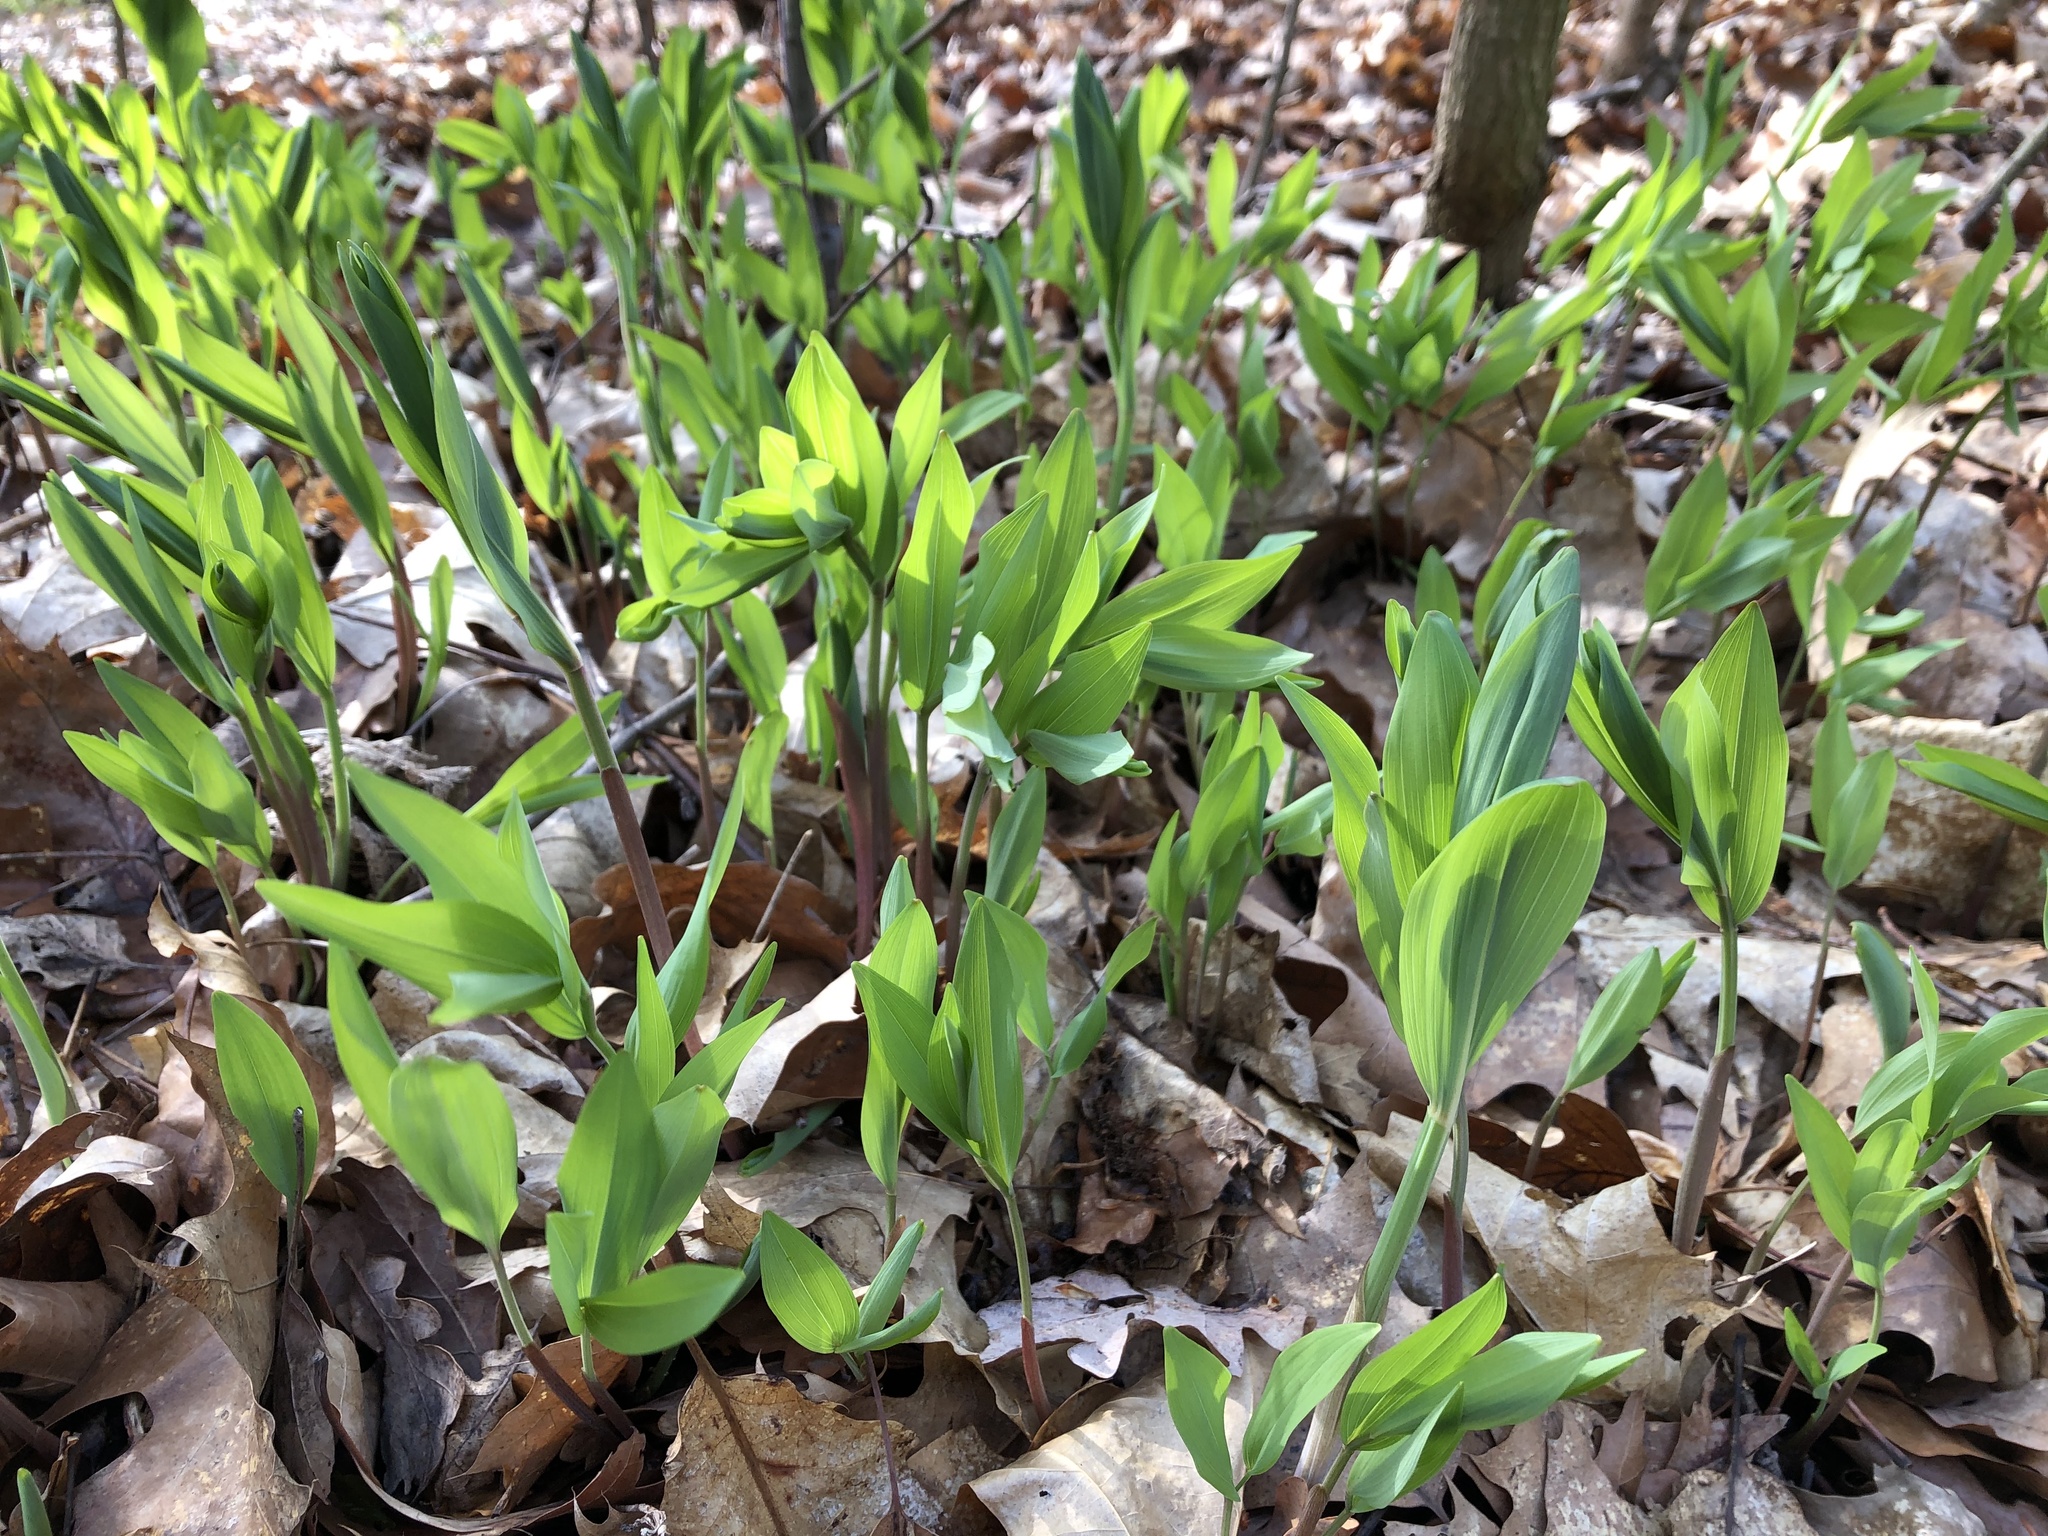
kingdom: Plantae
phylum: Tracheophyta
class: Liliopsida
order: Asparagales
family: Asparagaceae
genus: Polygonatum
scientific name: Polygonatum multiflorum
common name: Solomon's-seal
